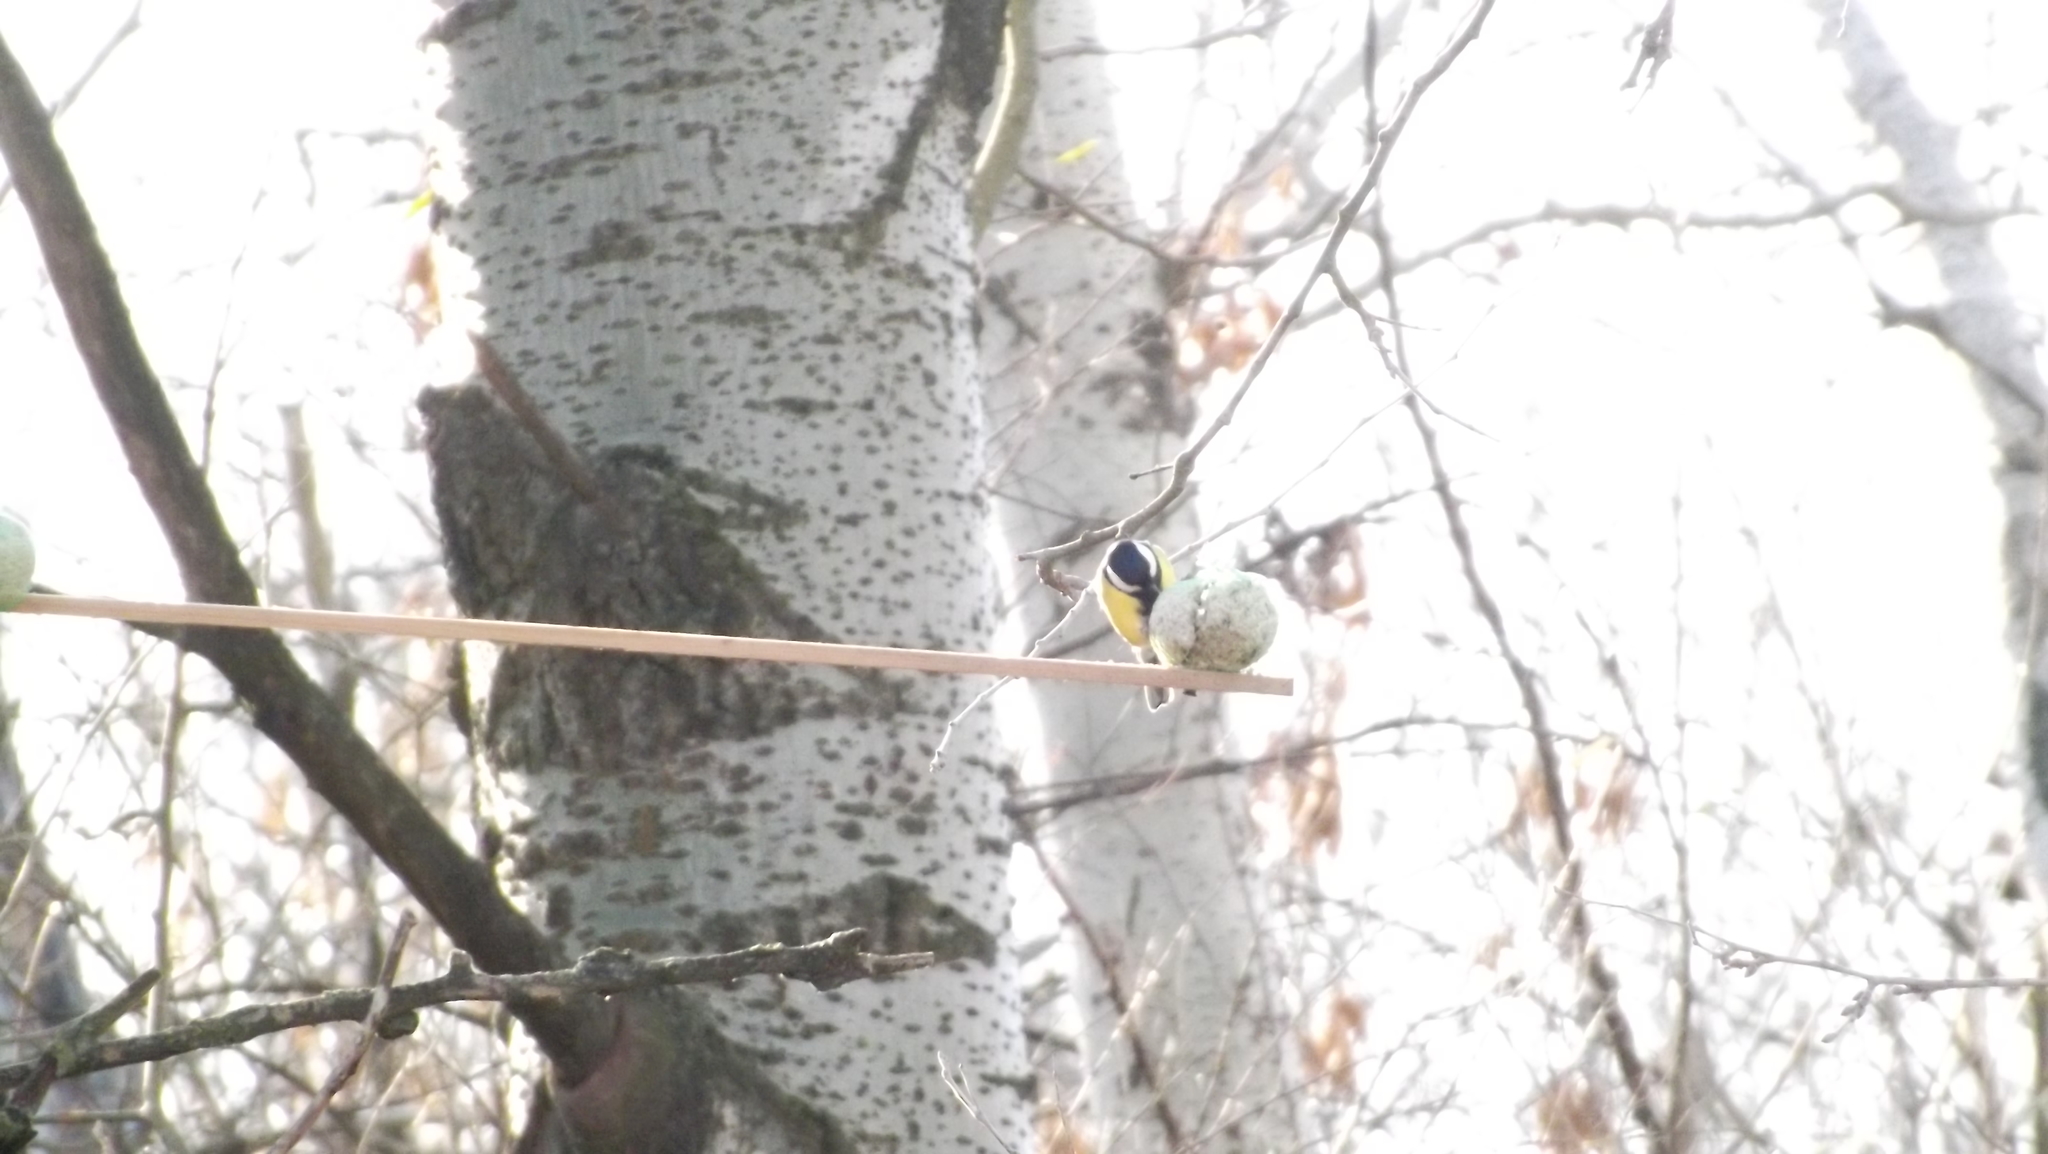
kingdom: Animalia
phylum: Chordata
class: Aves
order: Passeriformes
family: Paridae
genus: Cyanistes
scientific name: Cyanistes caeruleus
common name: Eurasian blue tit
